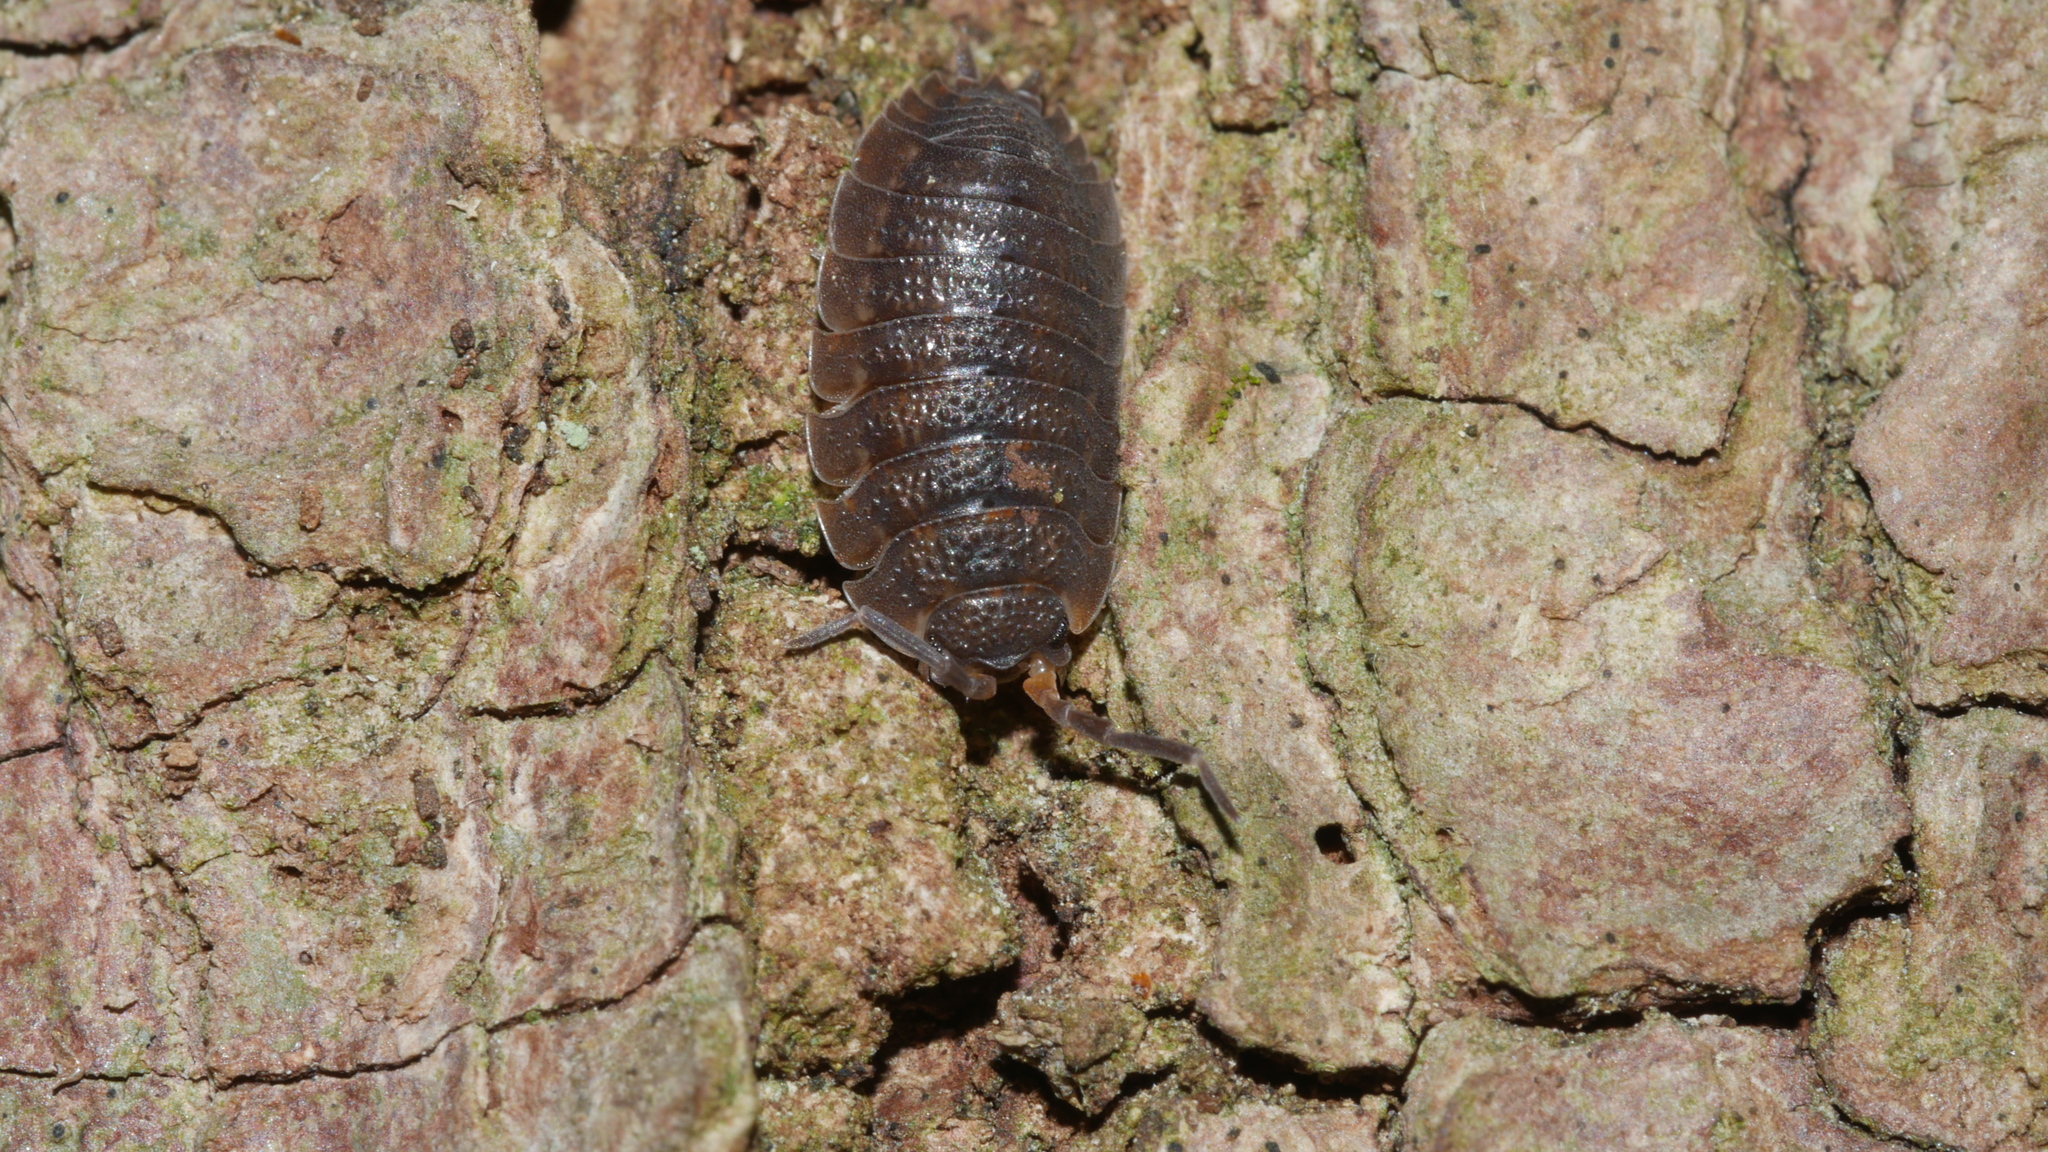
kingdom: Animalia
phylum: Arthropoda
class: Malacostraca
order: Isopoda
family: Porcellionidae
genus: Porcellio
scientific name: Porcellio scaber
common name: Common rough woodlouse
